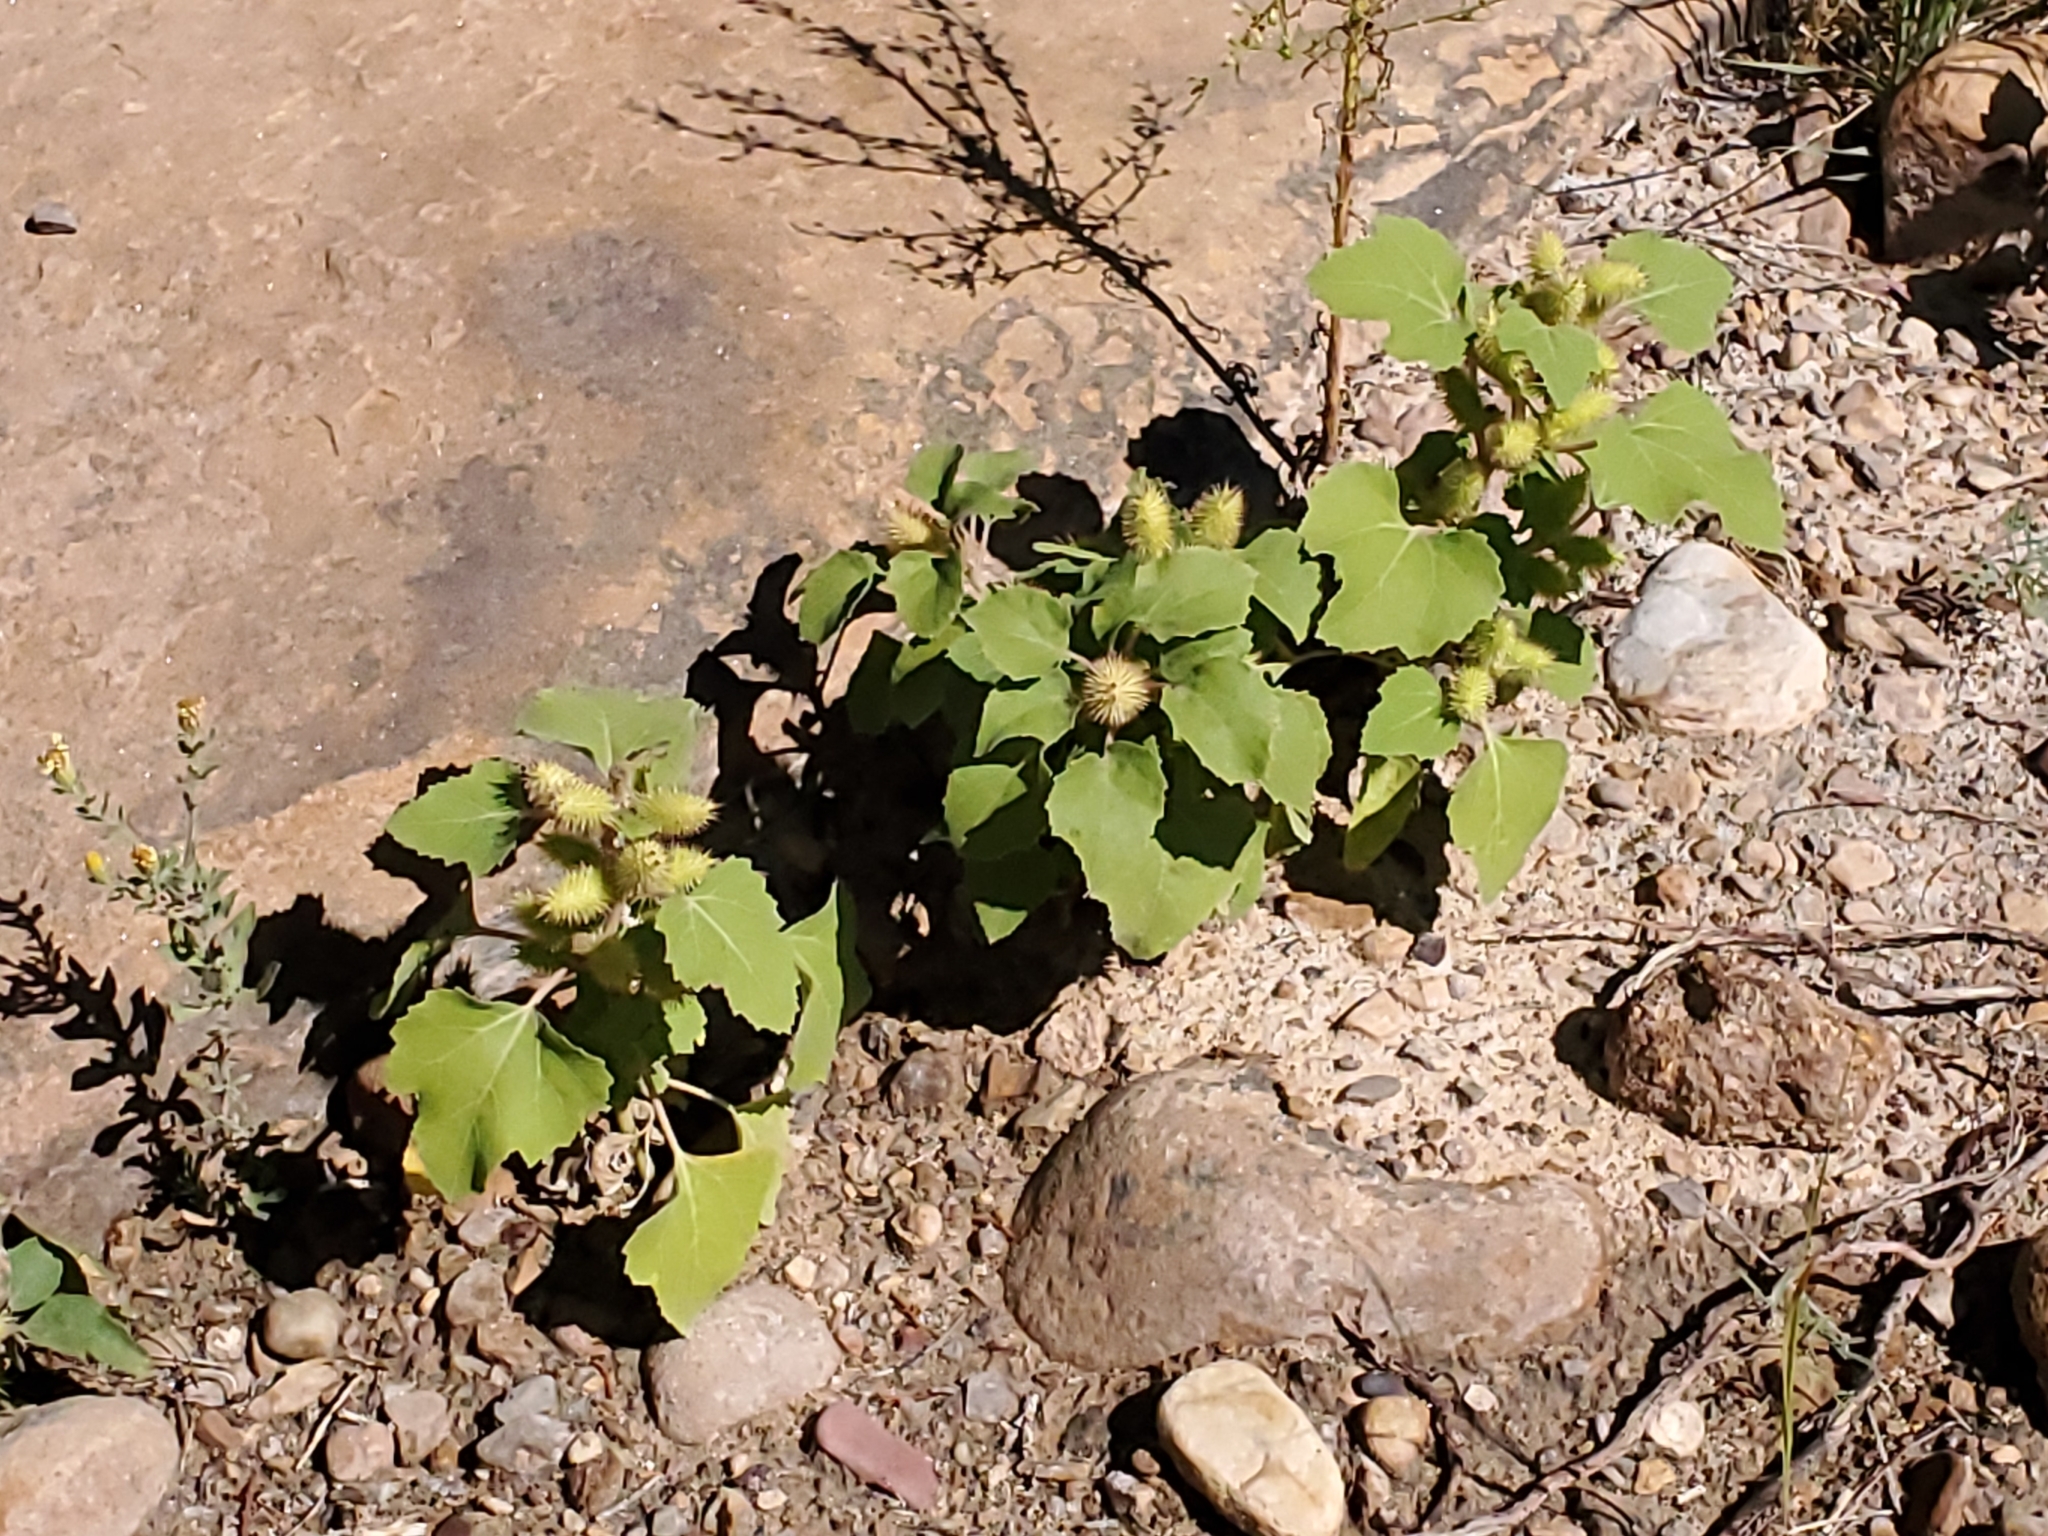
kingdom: Plantae
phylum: Tracheophyta
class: Magnoliopsida
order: Asterales
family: Asteraceae
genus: Xanthium
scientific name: Xanthium strumarium
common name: Rough cocklebur
